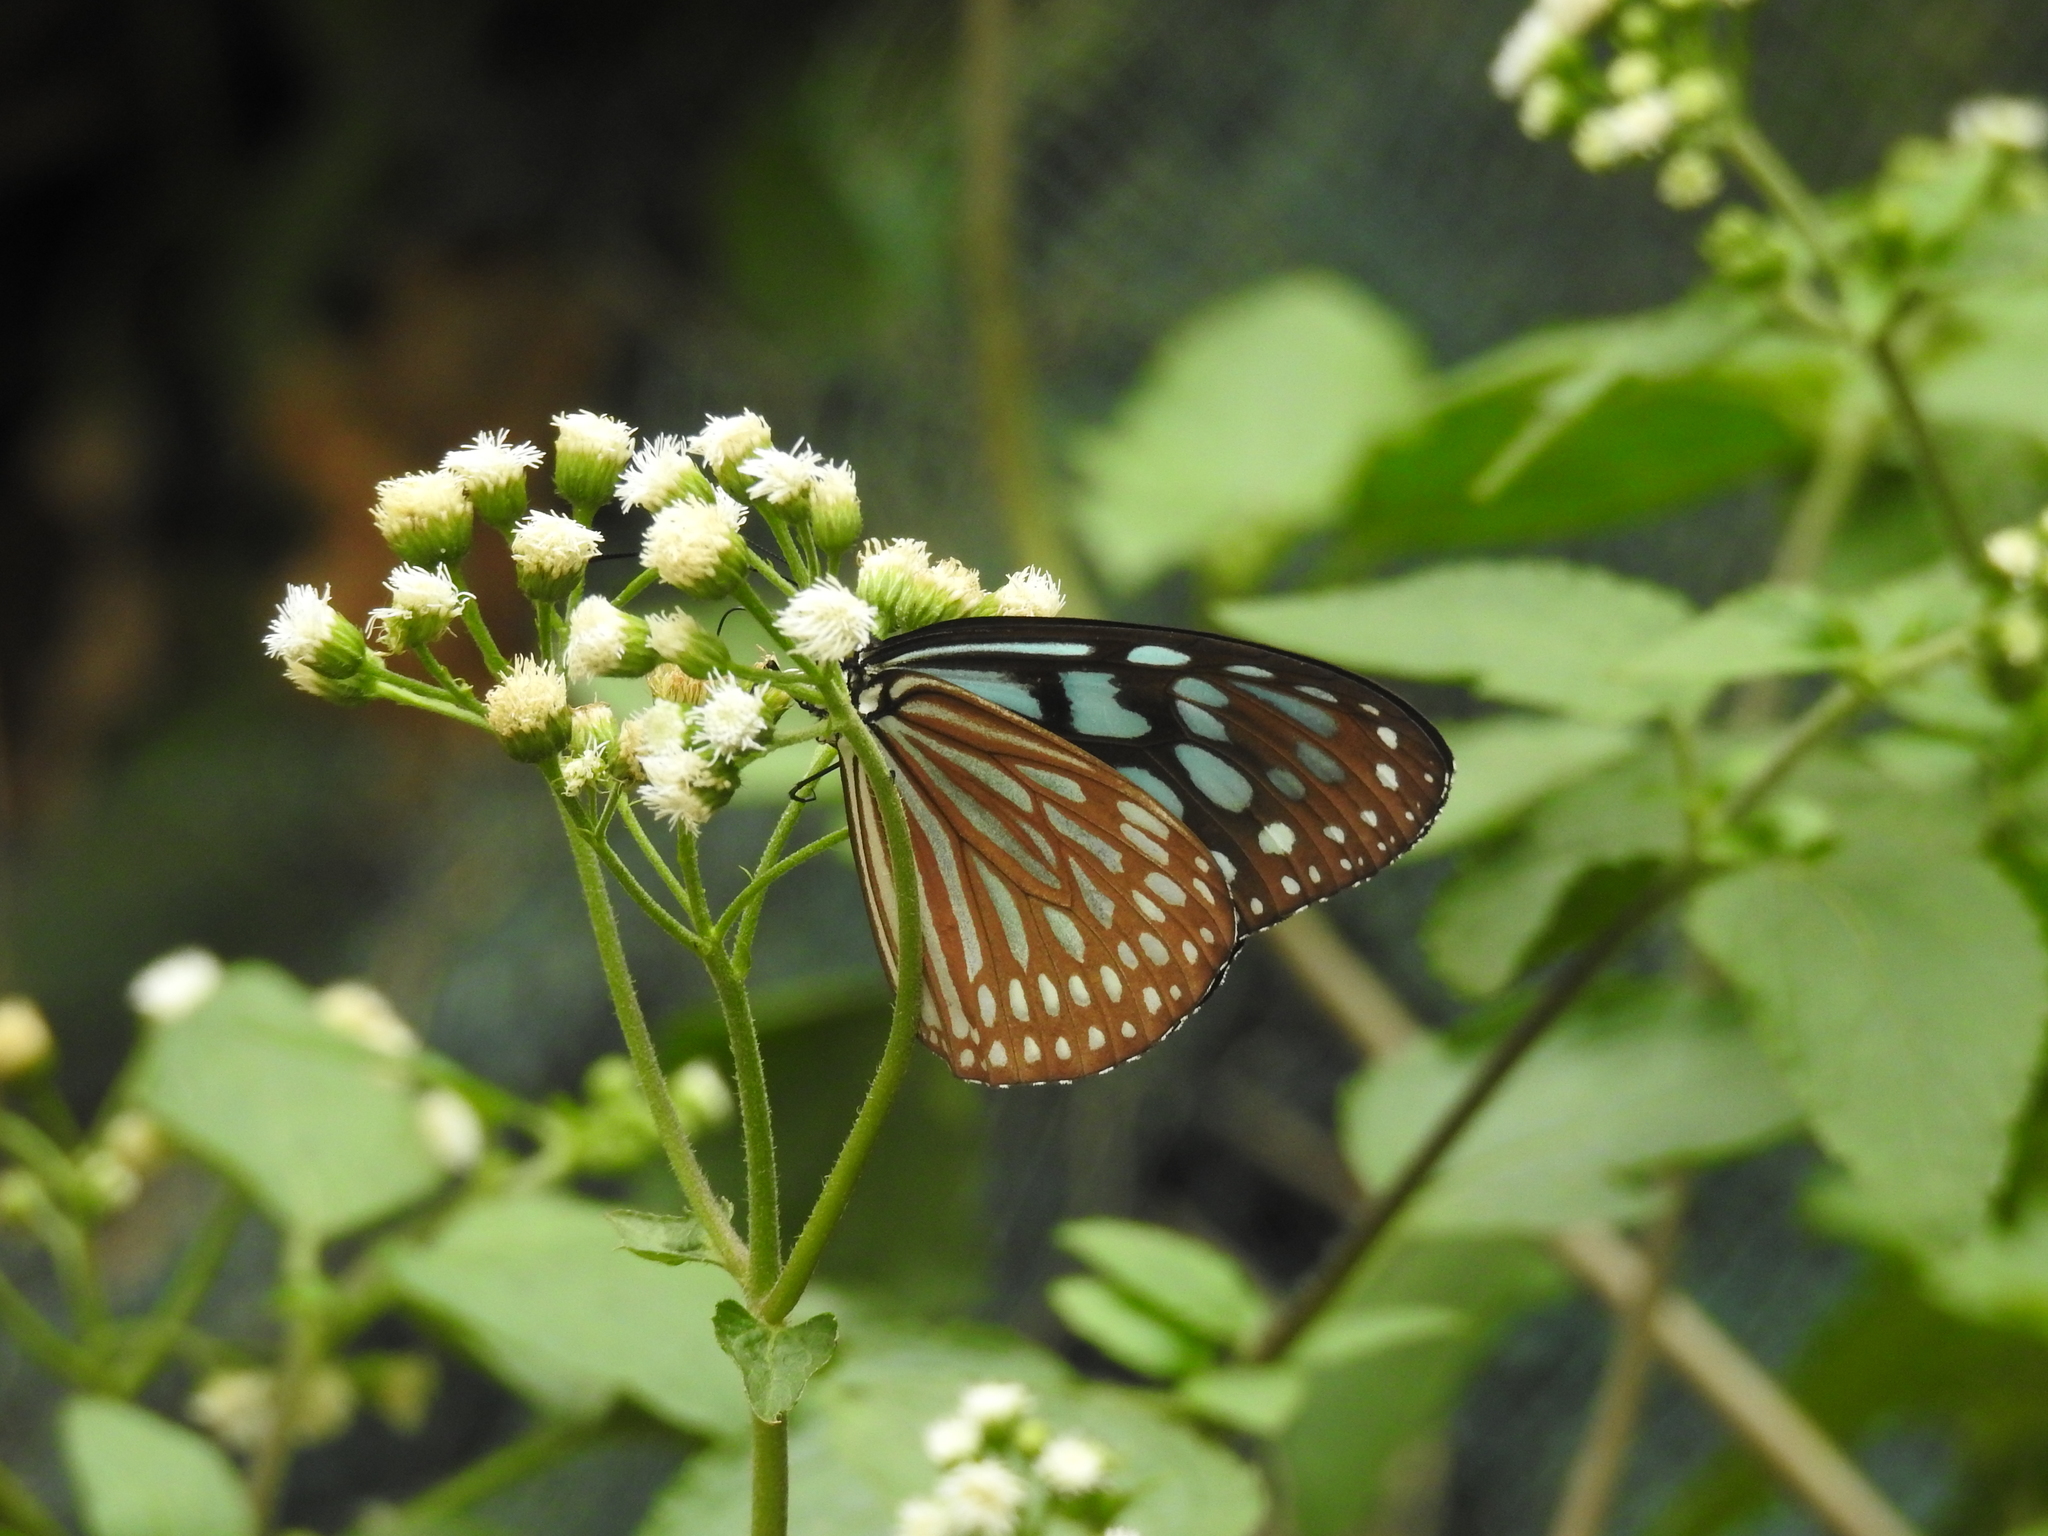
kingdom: Animalia
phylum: Arthropoda
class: Insecta
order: Lepidoptera
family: Nymphalidae
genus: Ideopsis
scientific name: Ideopsis similis
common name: Ceylon blue glassy tiger
